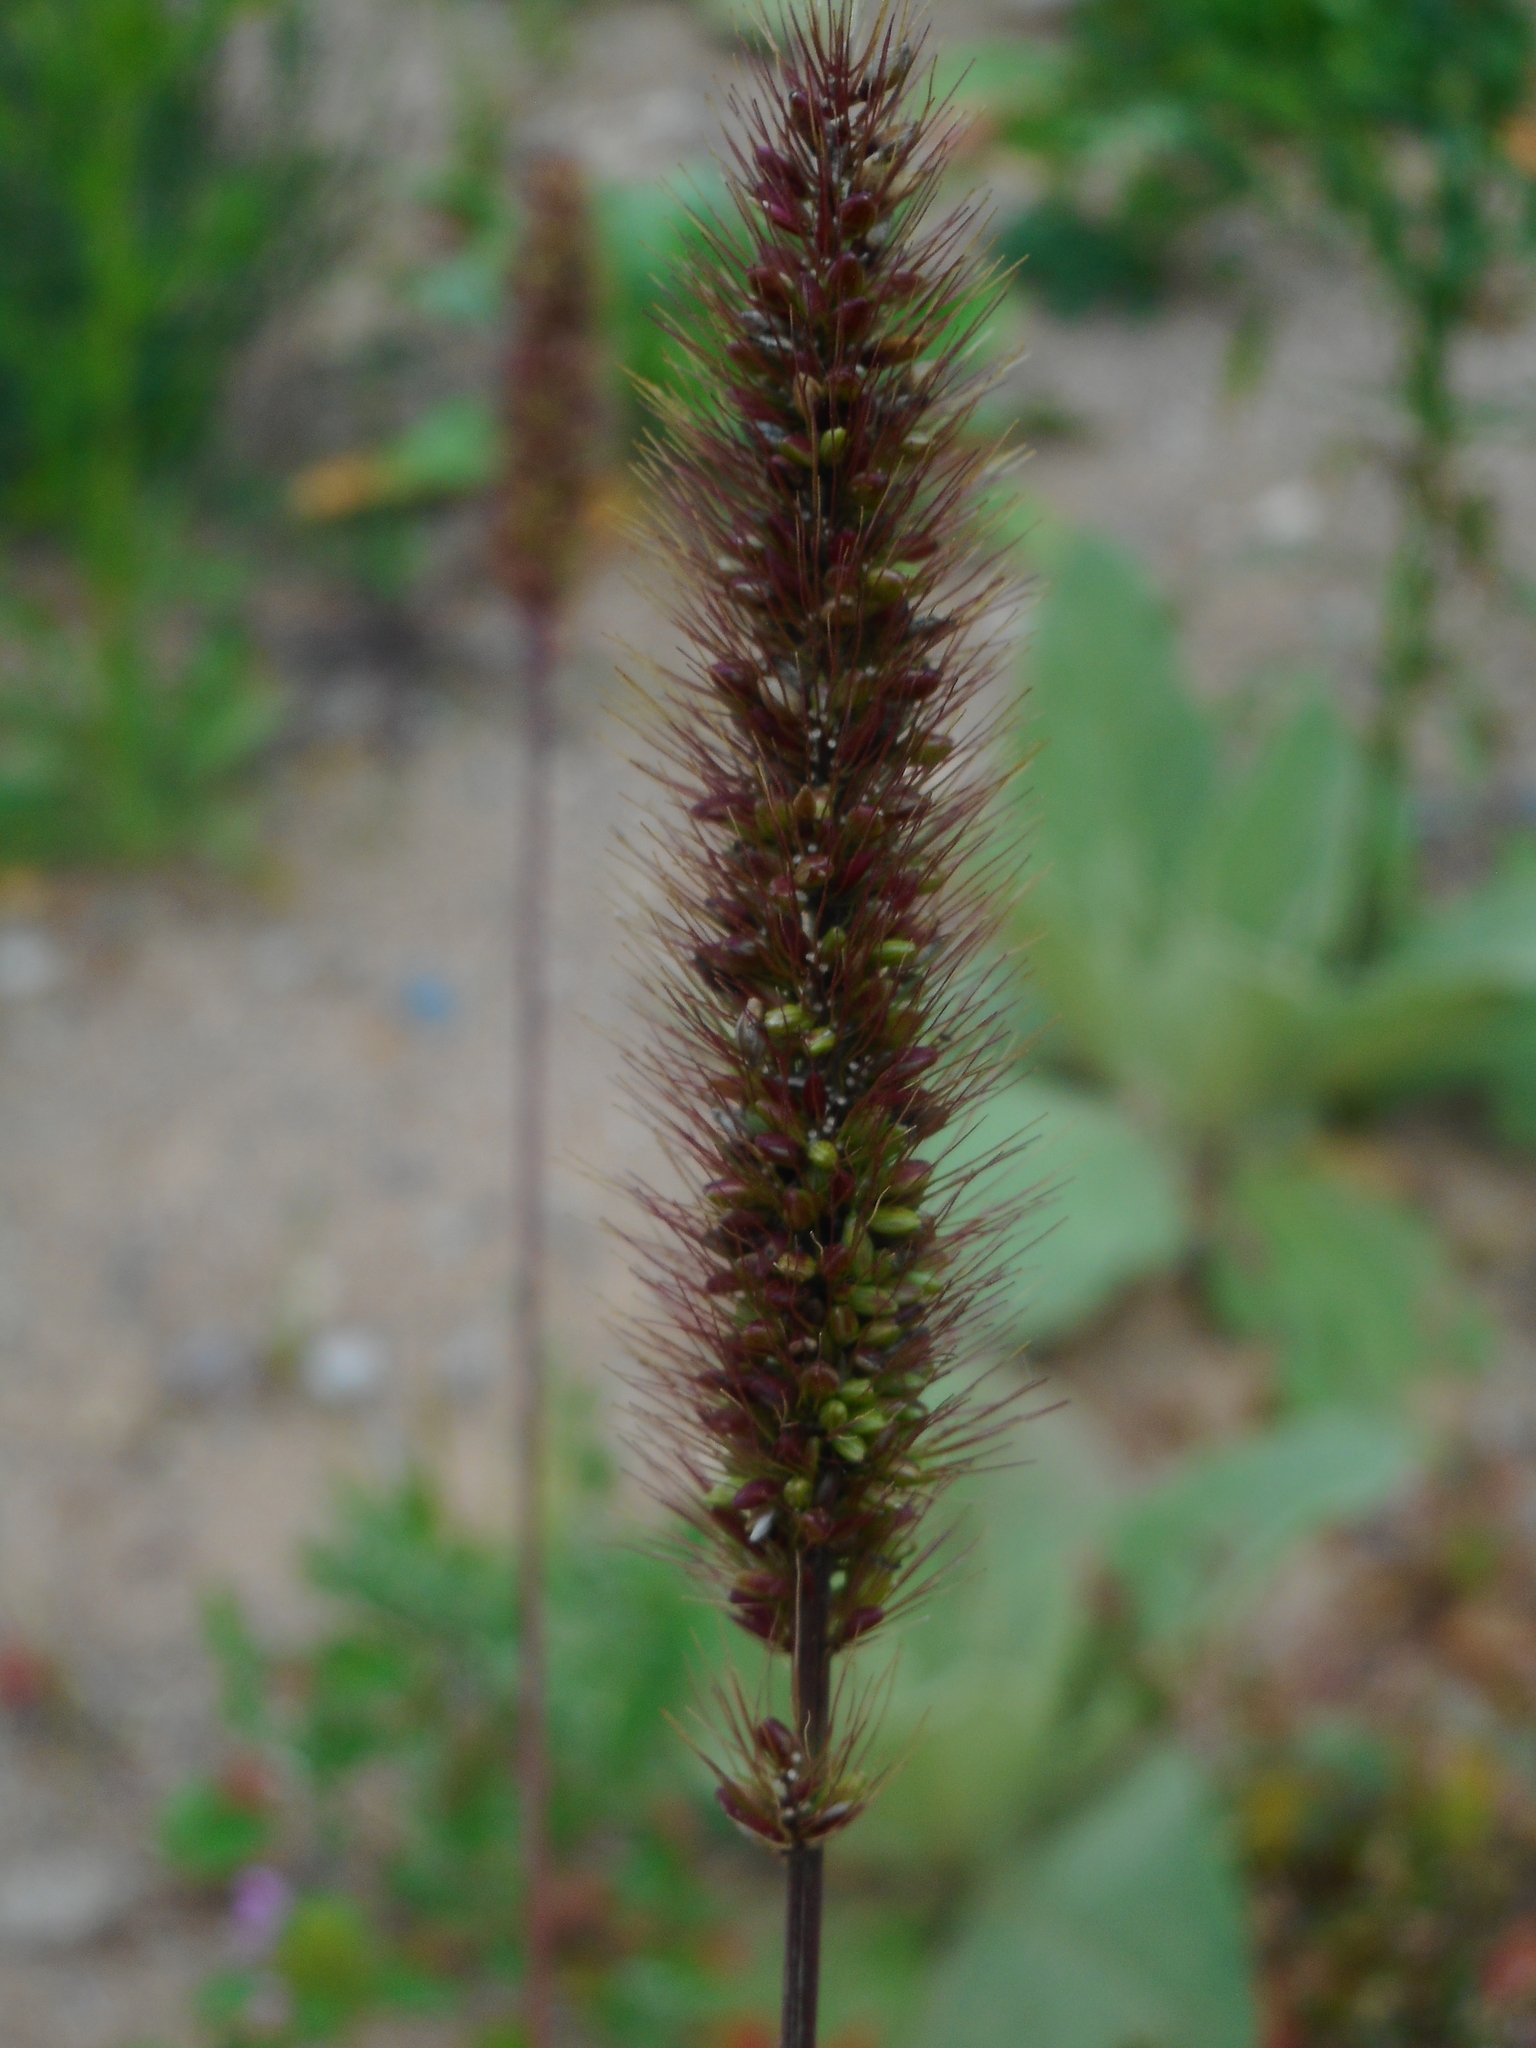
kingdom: Plantae
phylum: Tracheophyta
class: Liliopsida
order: Poales
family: Poaceae
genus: Setaria
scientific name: Setaria viridis
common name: Green bristlegrass
